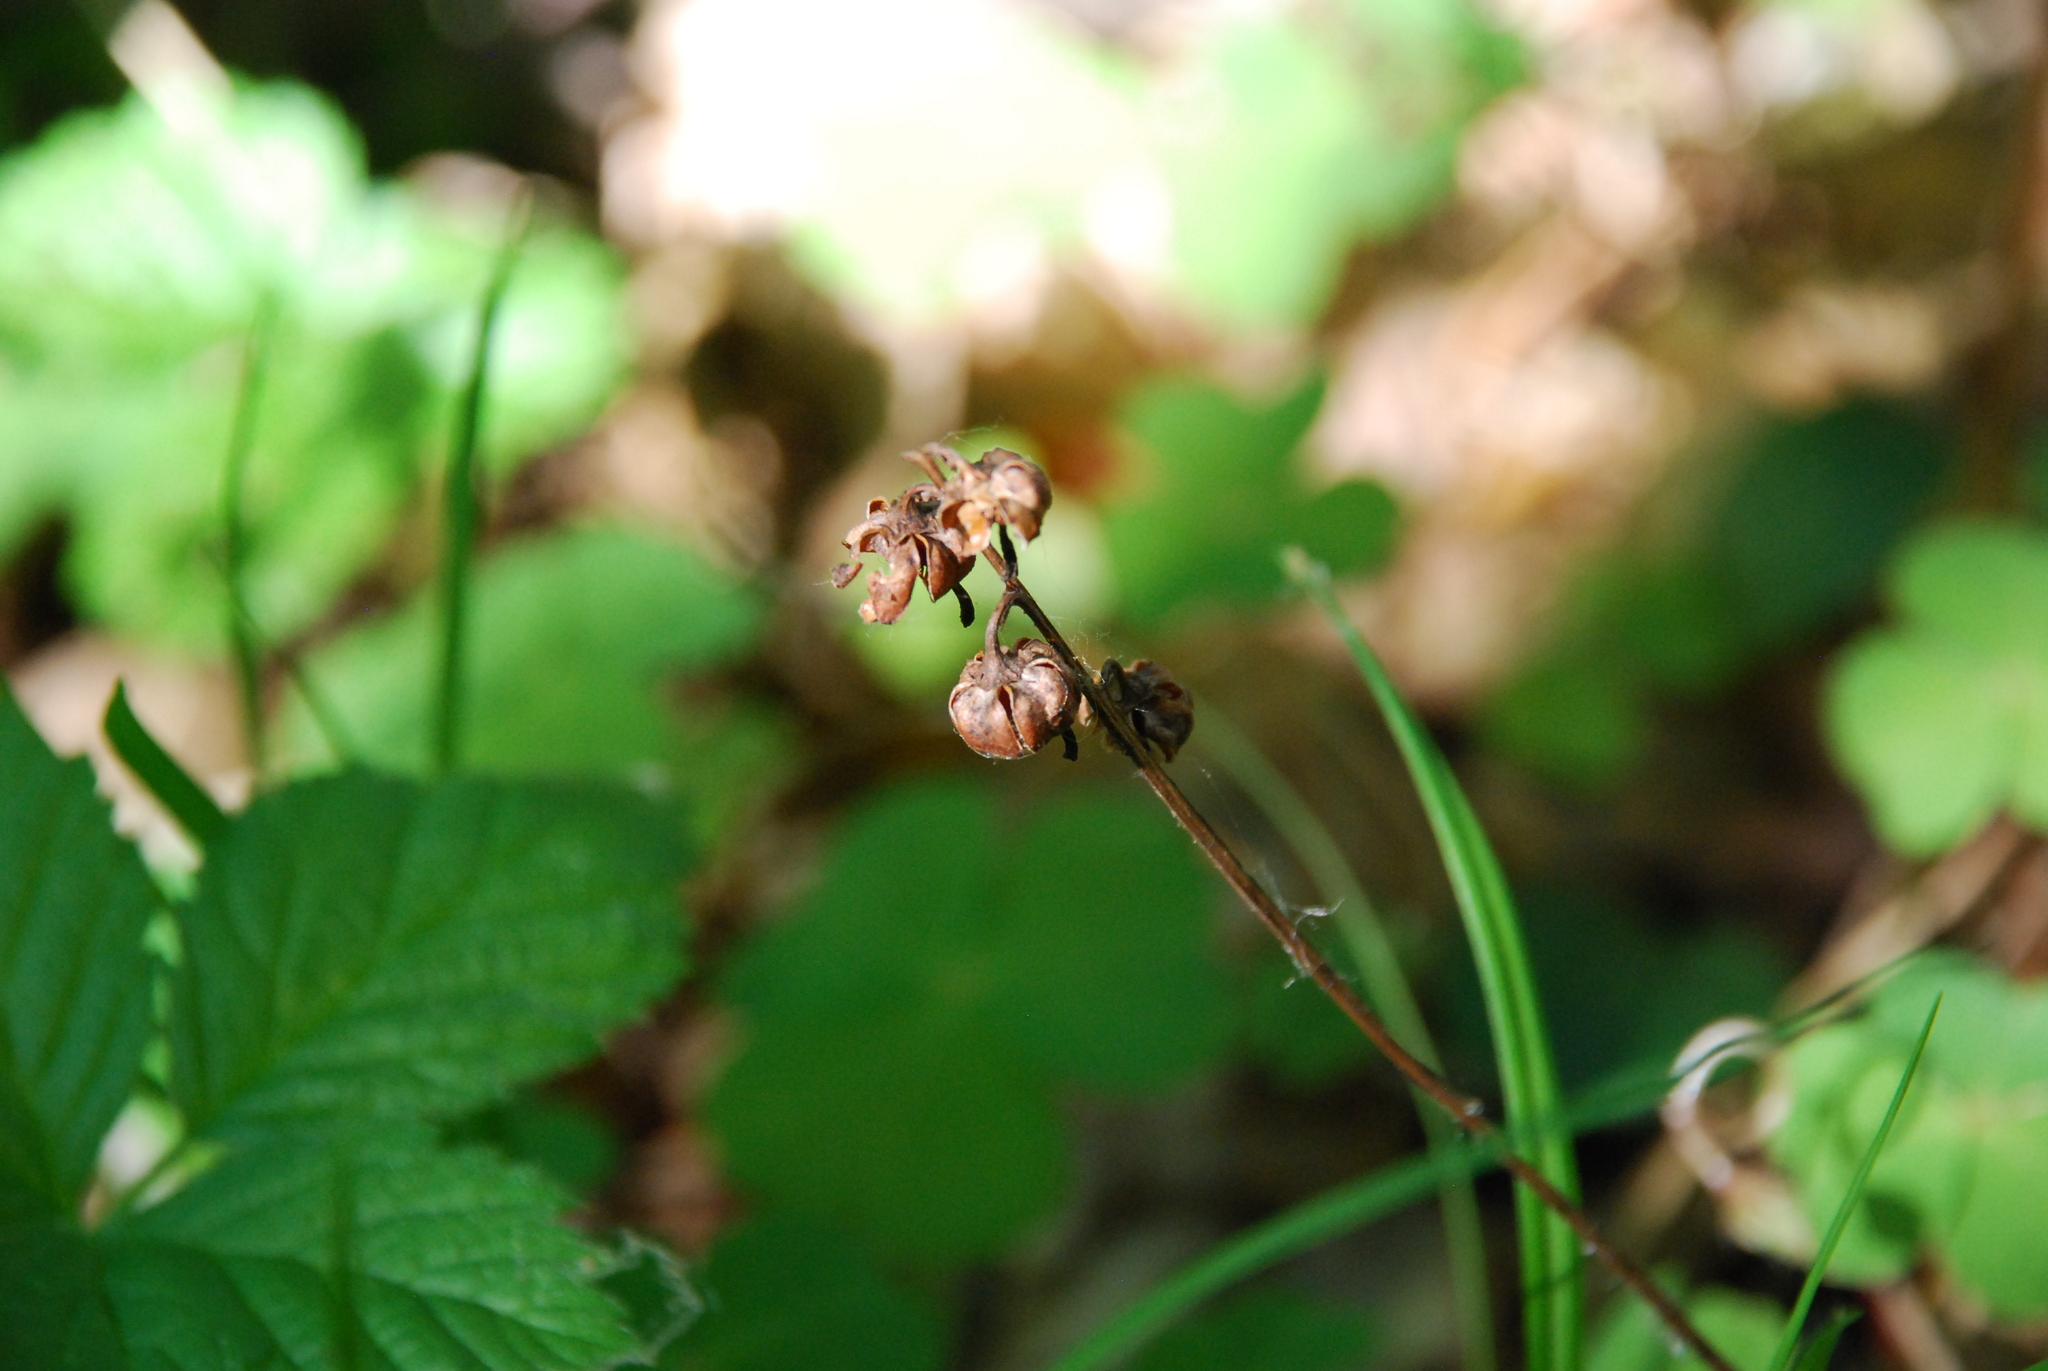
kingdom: Plantae
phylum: Tracheophyta
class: Magnoliopsida
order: Ericales
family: Ericaceae
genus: Pyrola
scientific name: Pyrola chlorantha
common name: Green wintergreen
